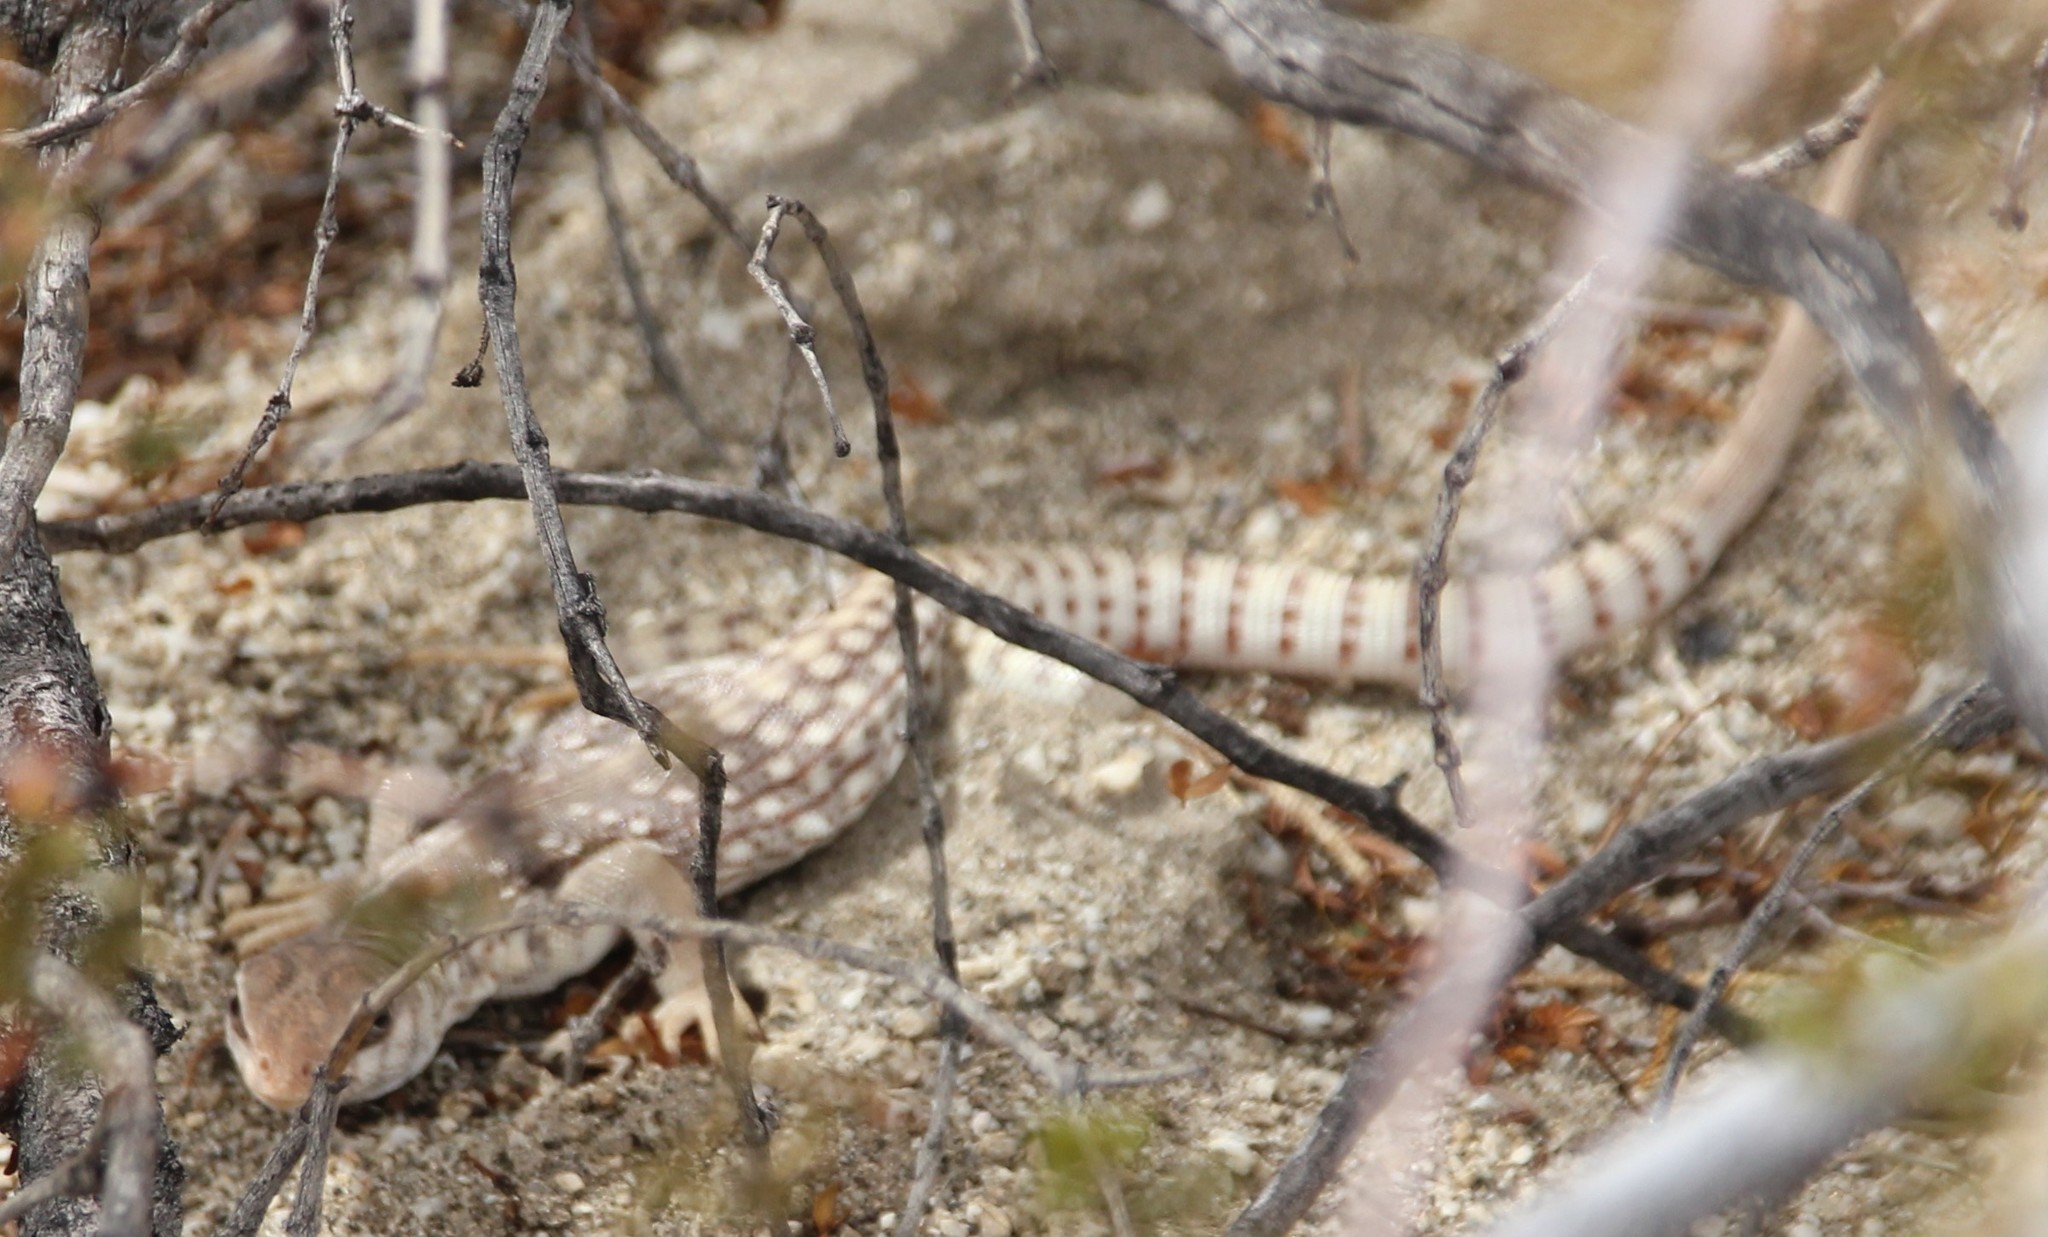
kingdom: Animalia
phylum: Chordata
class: Squamata
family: Iguanidae
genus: Dipsosaurus
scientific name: Dipsosaurus dorsalis
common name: Desert iguana
